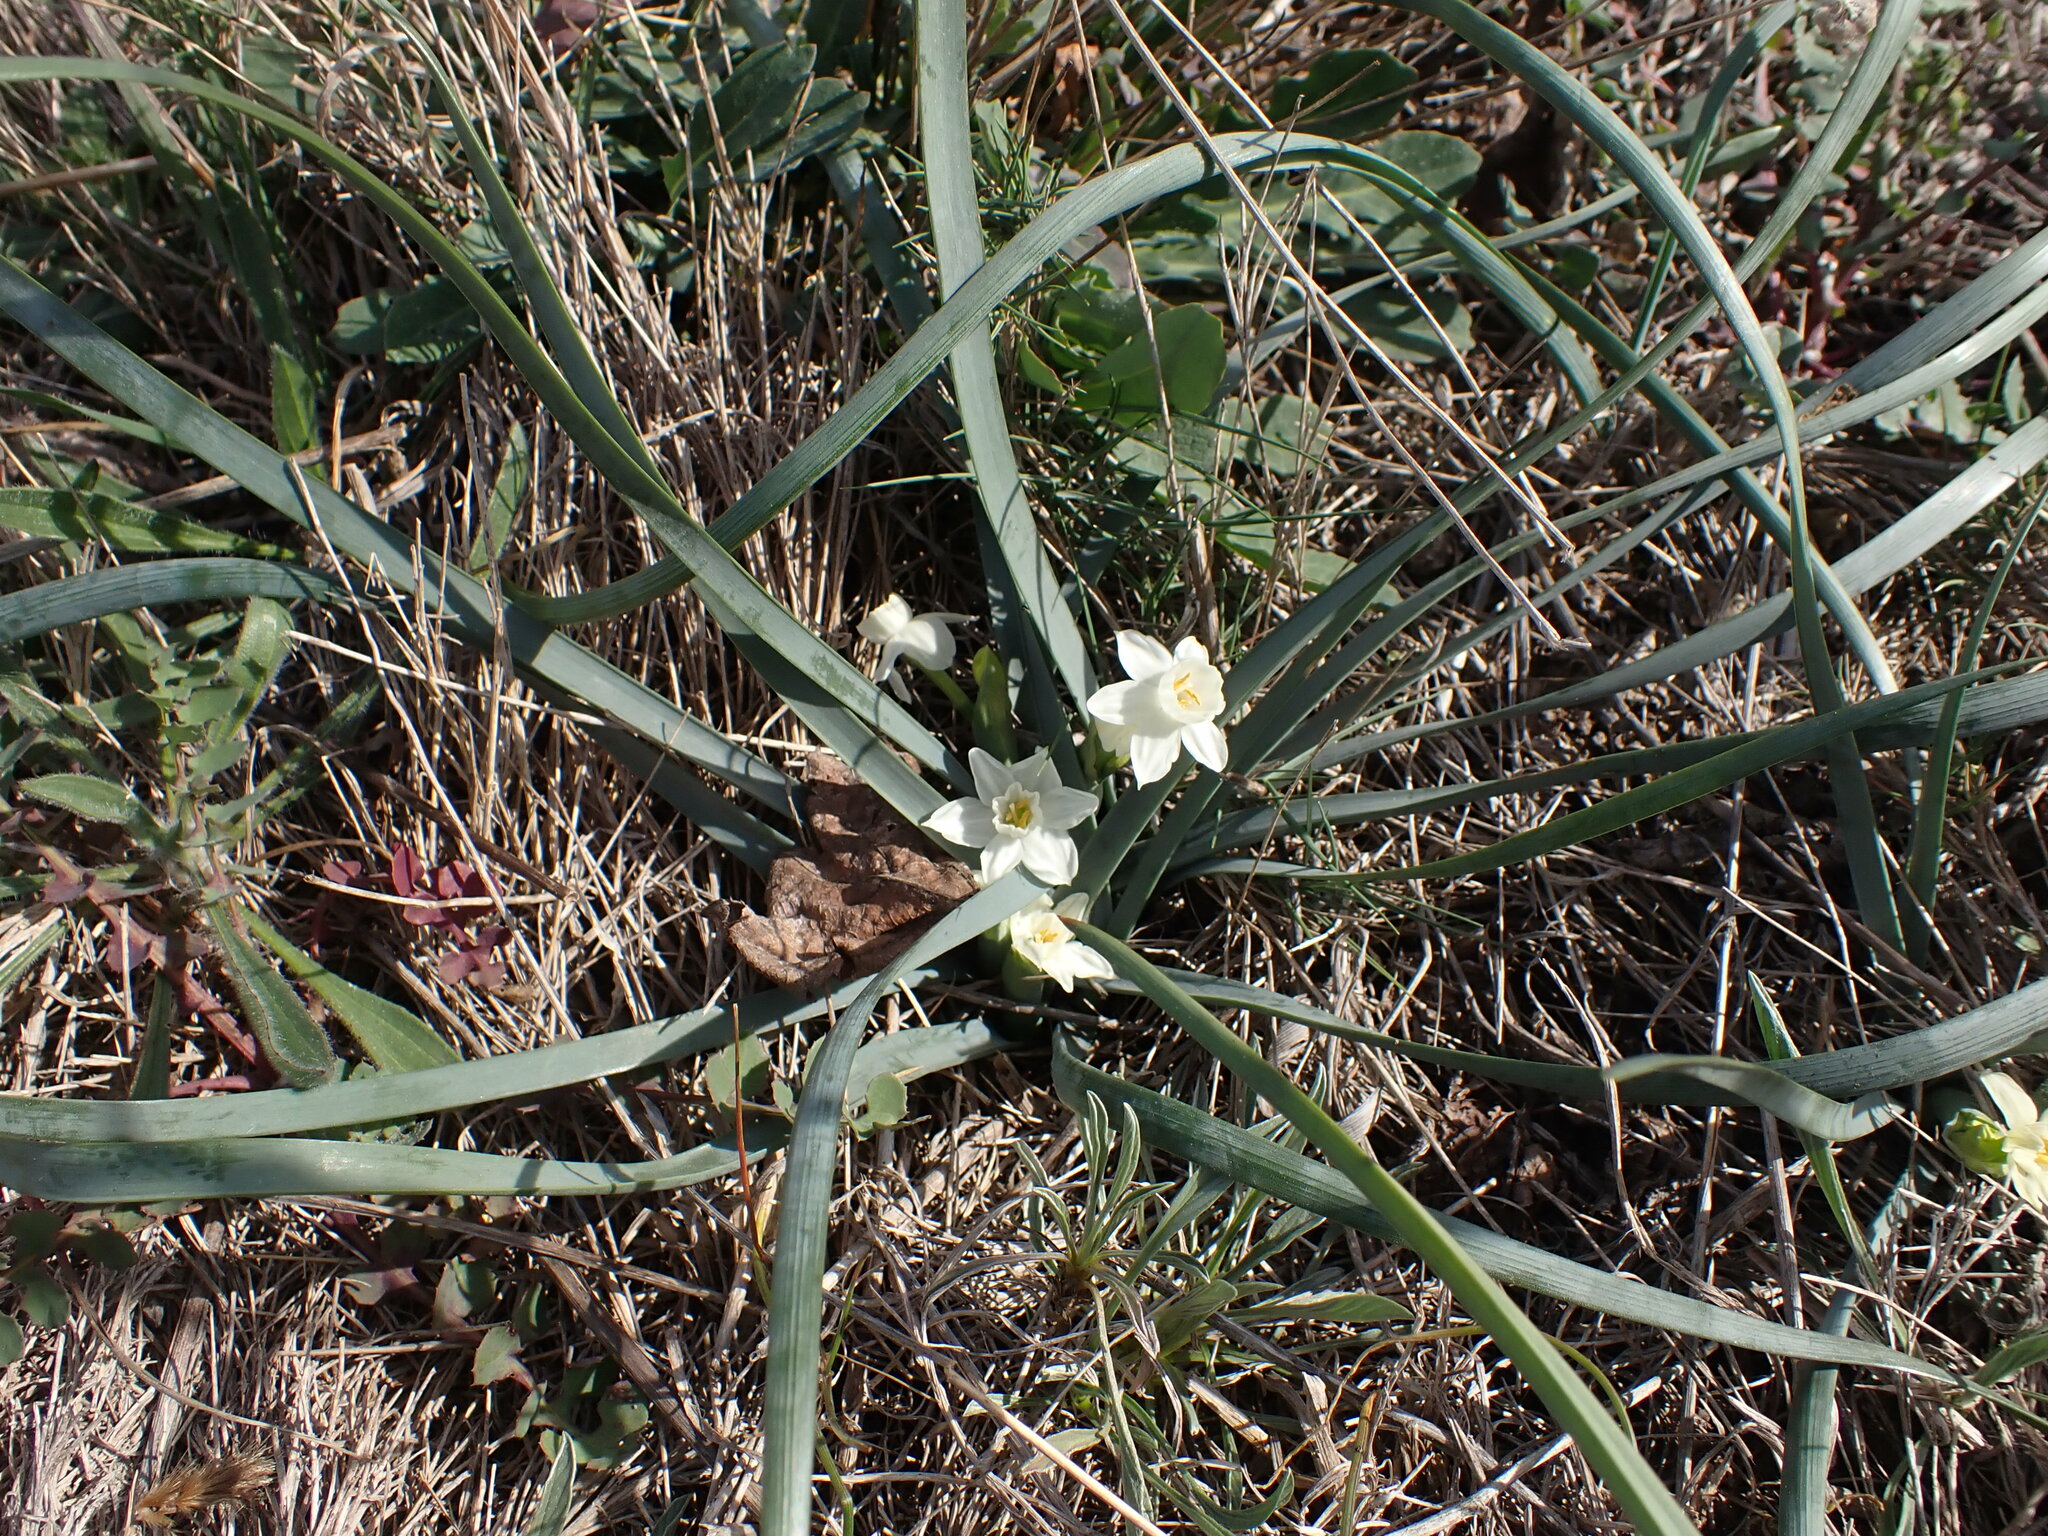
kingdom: Plantae
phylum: Tracheophyta
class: Liliopsida
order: Asparagales
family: Amaryllidaceae
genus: Narcissus
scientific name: Narcissus dubius
